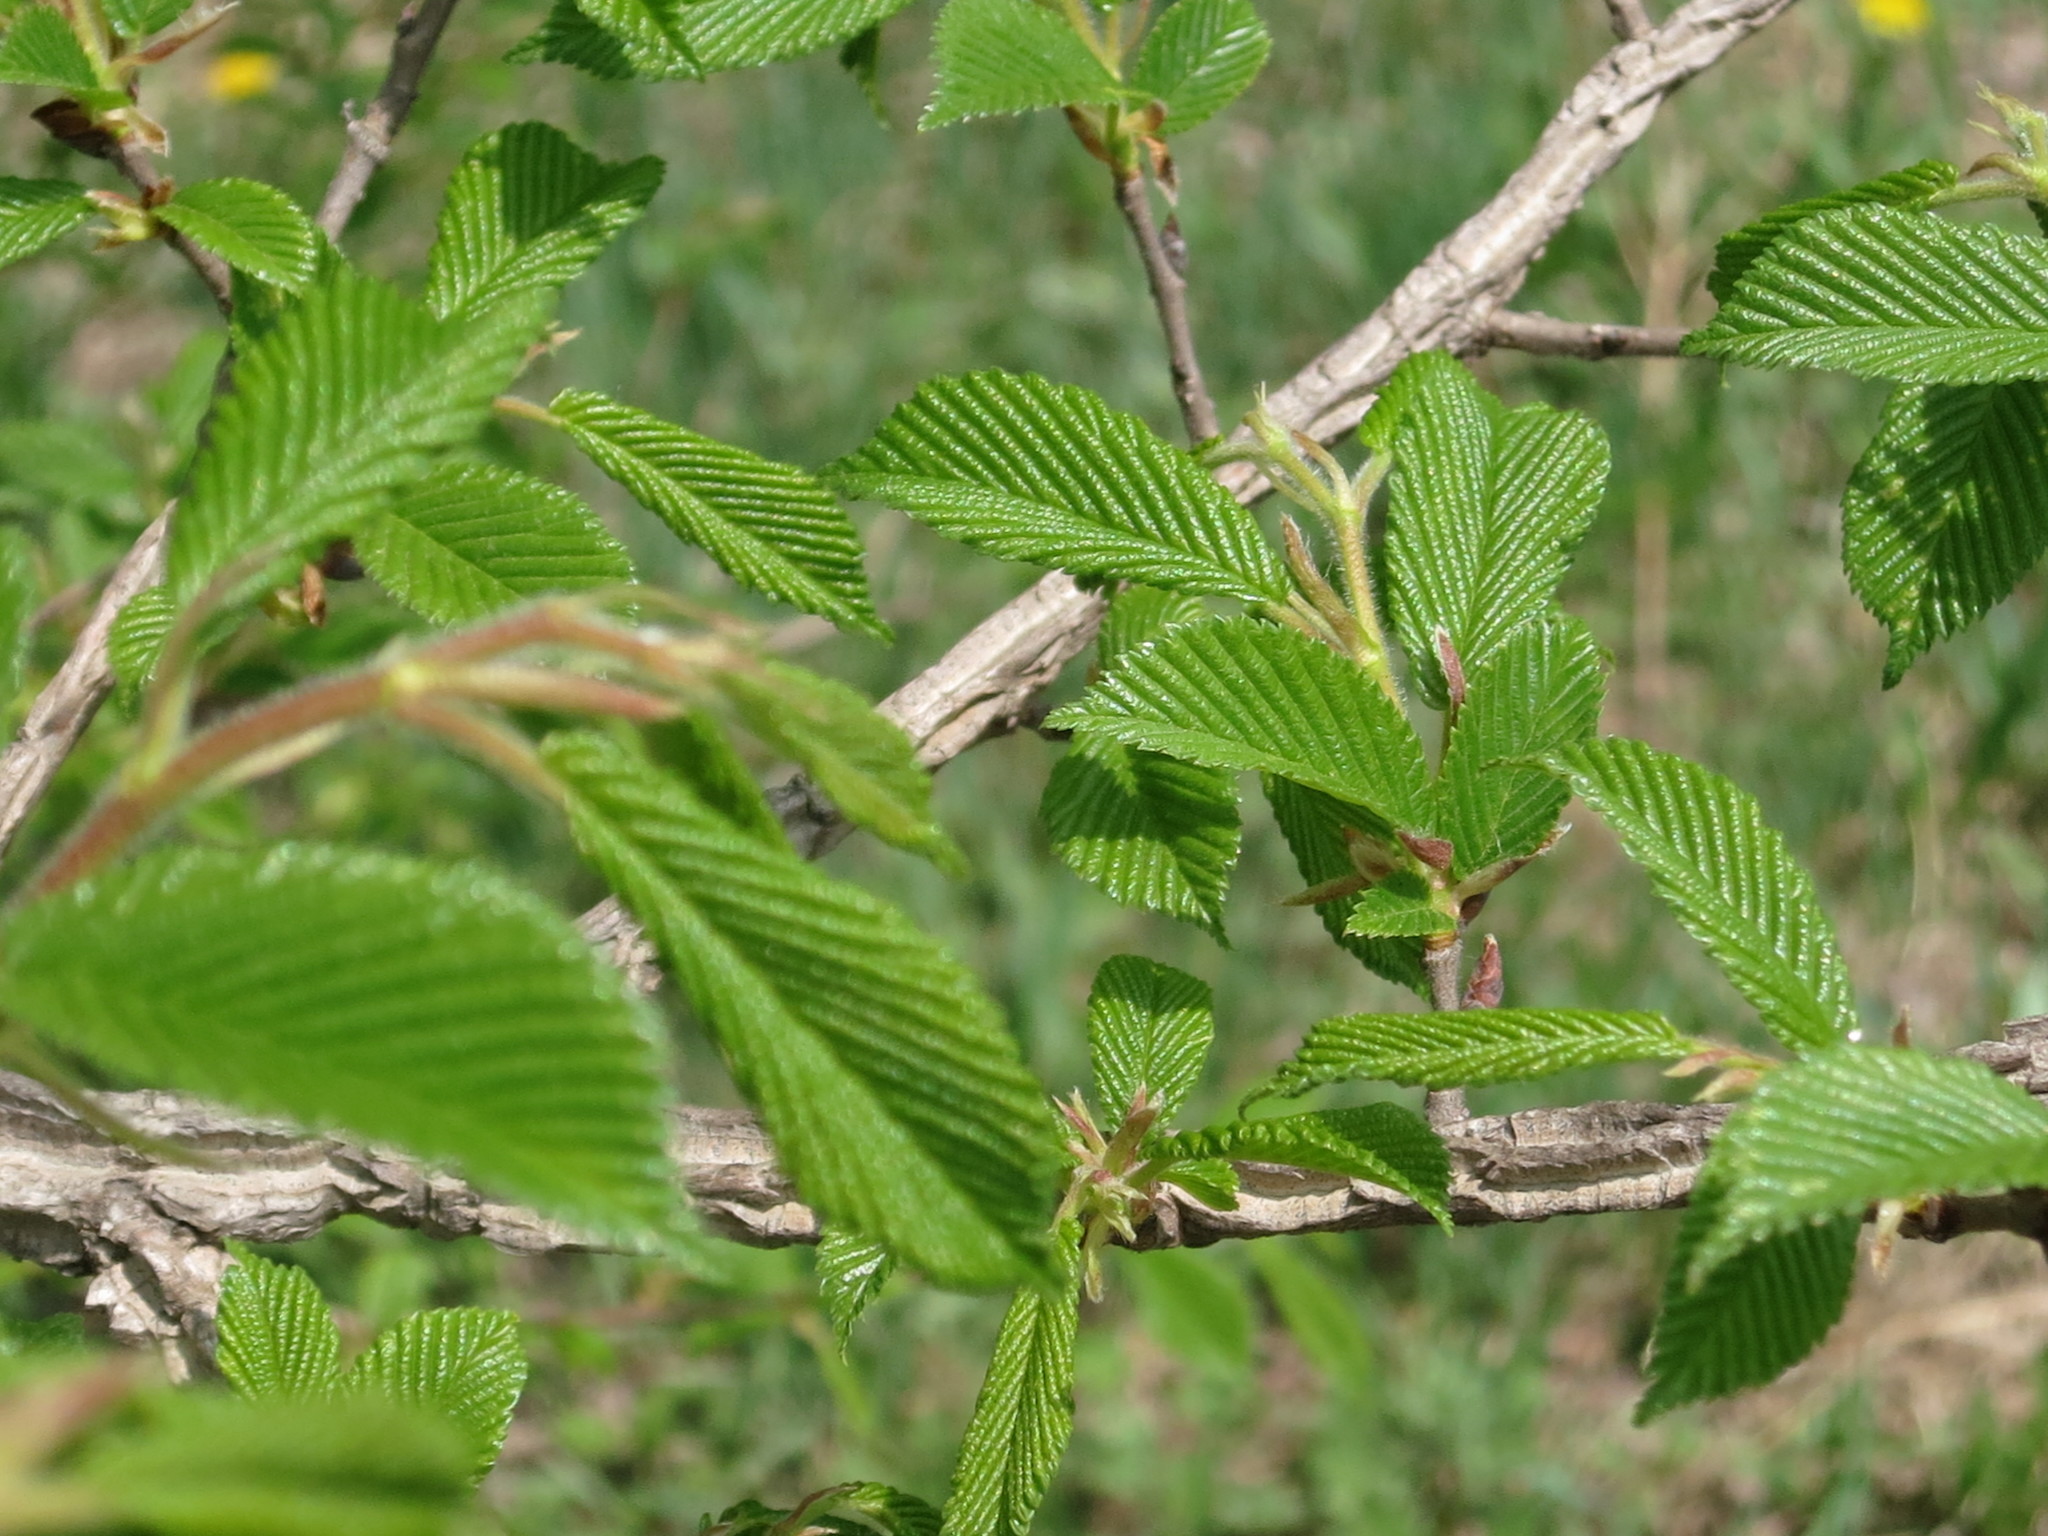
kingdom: Plantae
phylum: Tracheophyta
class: Magnoliopsida
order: Rosales
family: Ulmaceae
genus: Ulmus
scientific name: Ulmus davidiana
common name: Japanese elm
